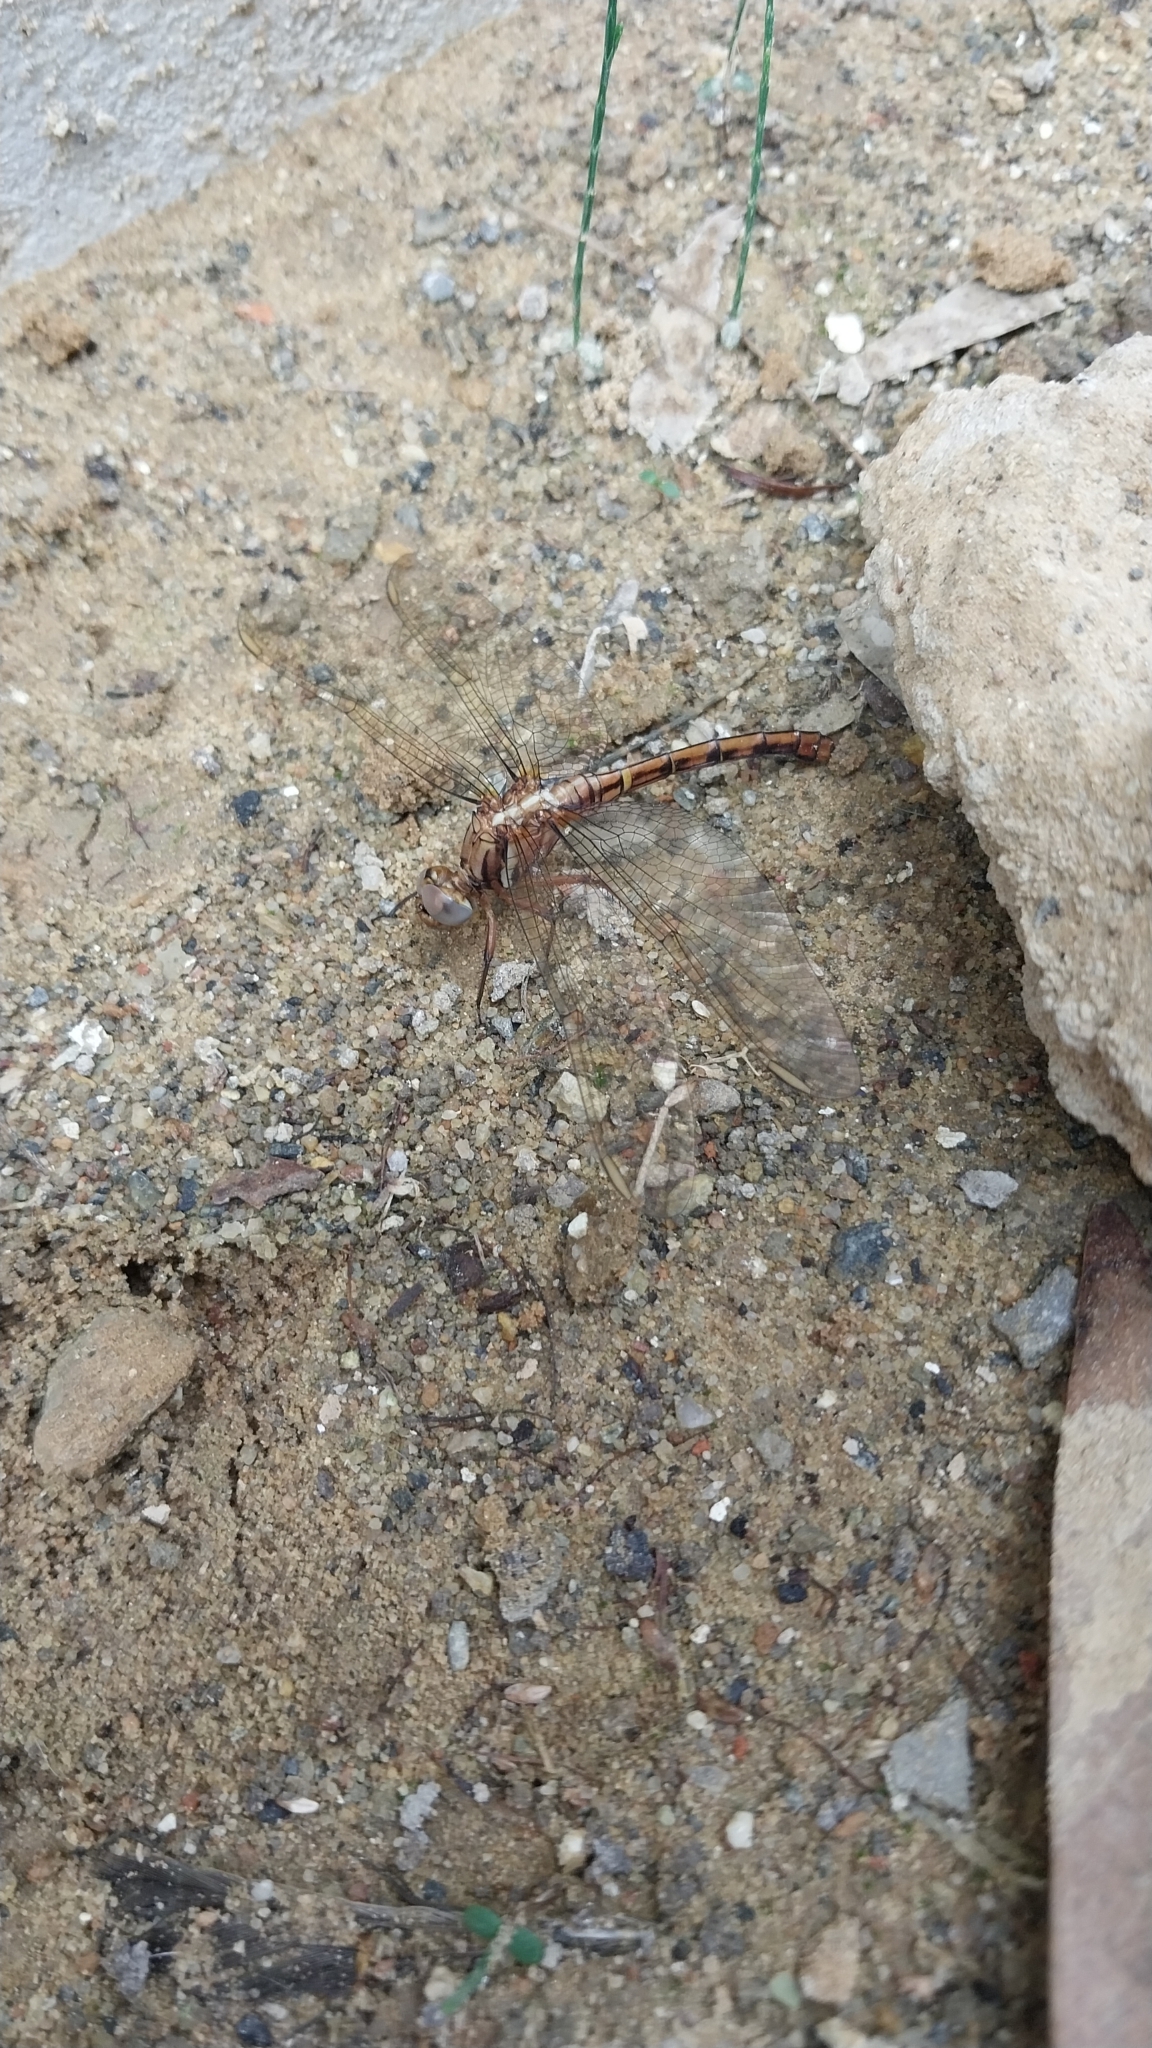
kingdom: Animalia
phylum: Arthropoda
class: Insecta
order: Odonata
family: Libellulidae
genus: Orthetrum
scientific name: Orthetrum julia
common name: Julia skimmer
